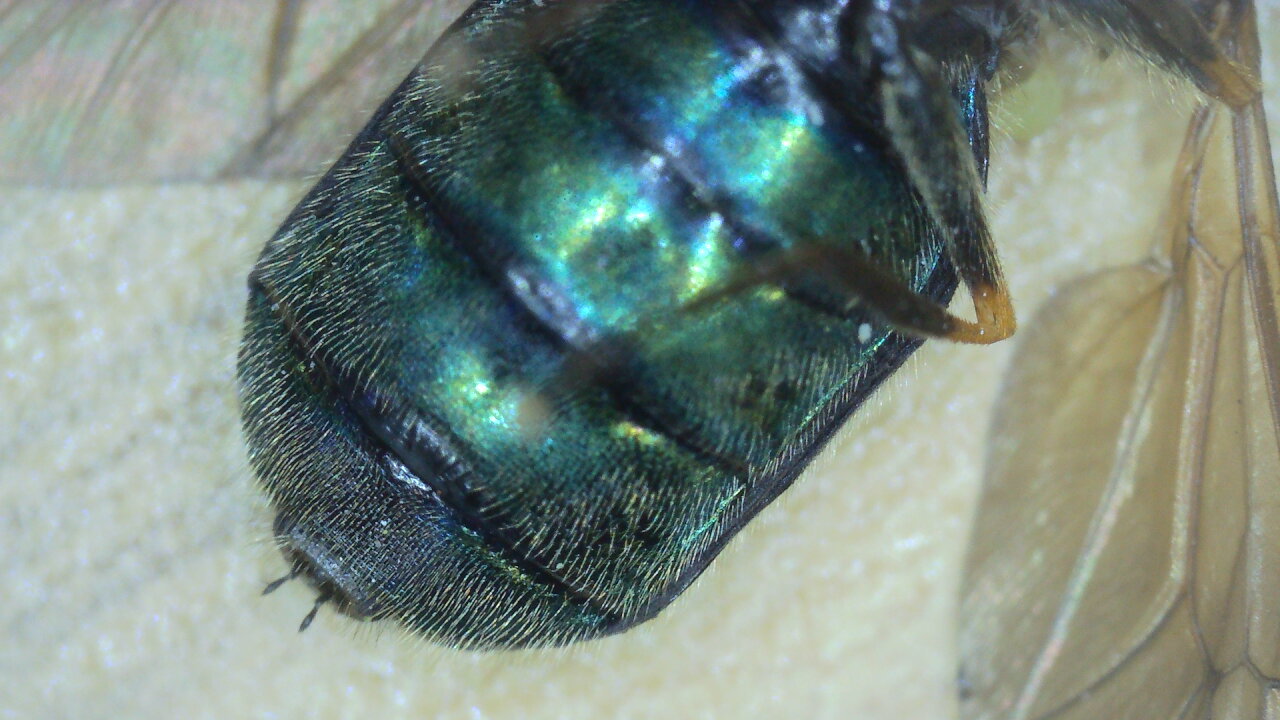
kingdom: Animalia
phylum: Arthropoda
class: Insecta
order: Diptera
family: Stratiomyidae
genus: Chloromyia
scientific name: Chloromyia formosa
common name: Soldier fly
